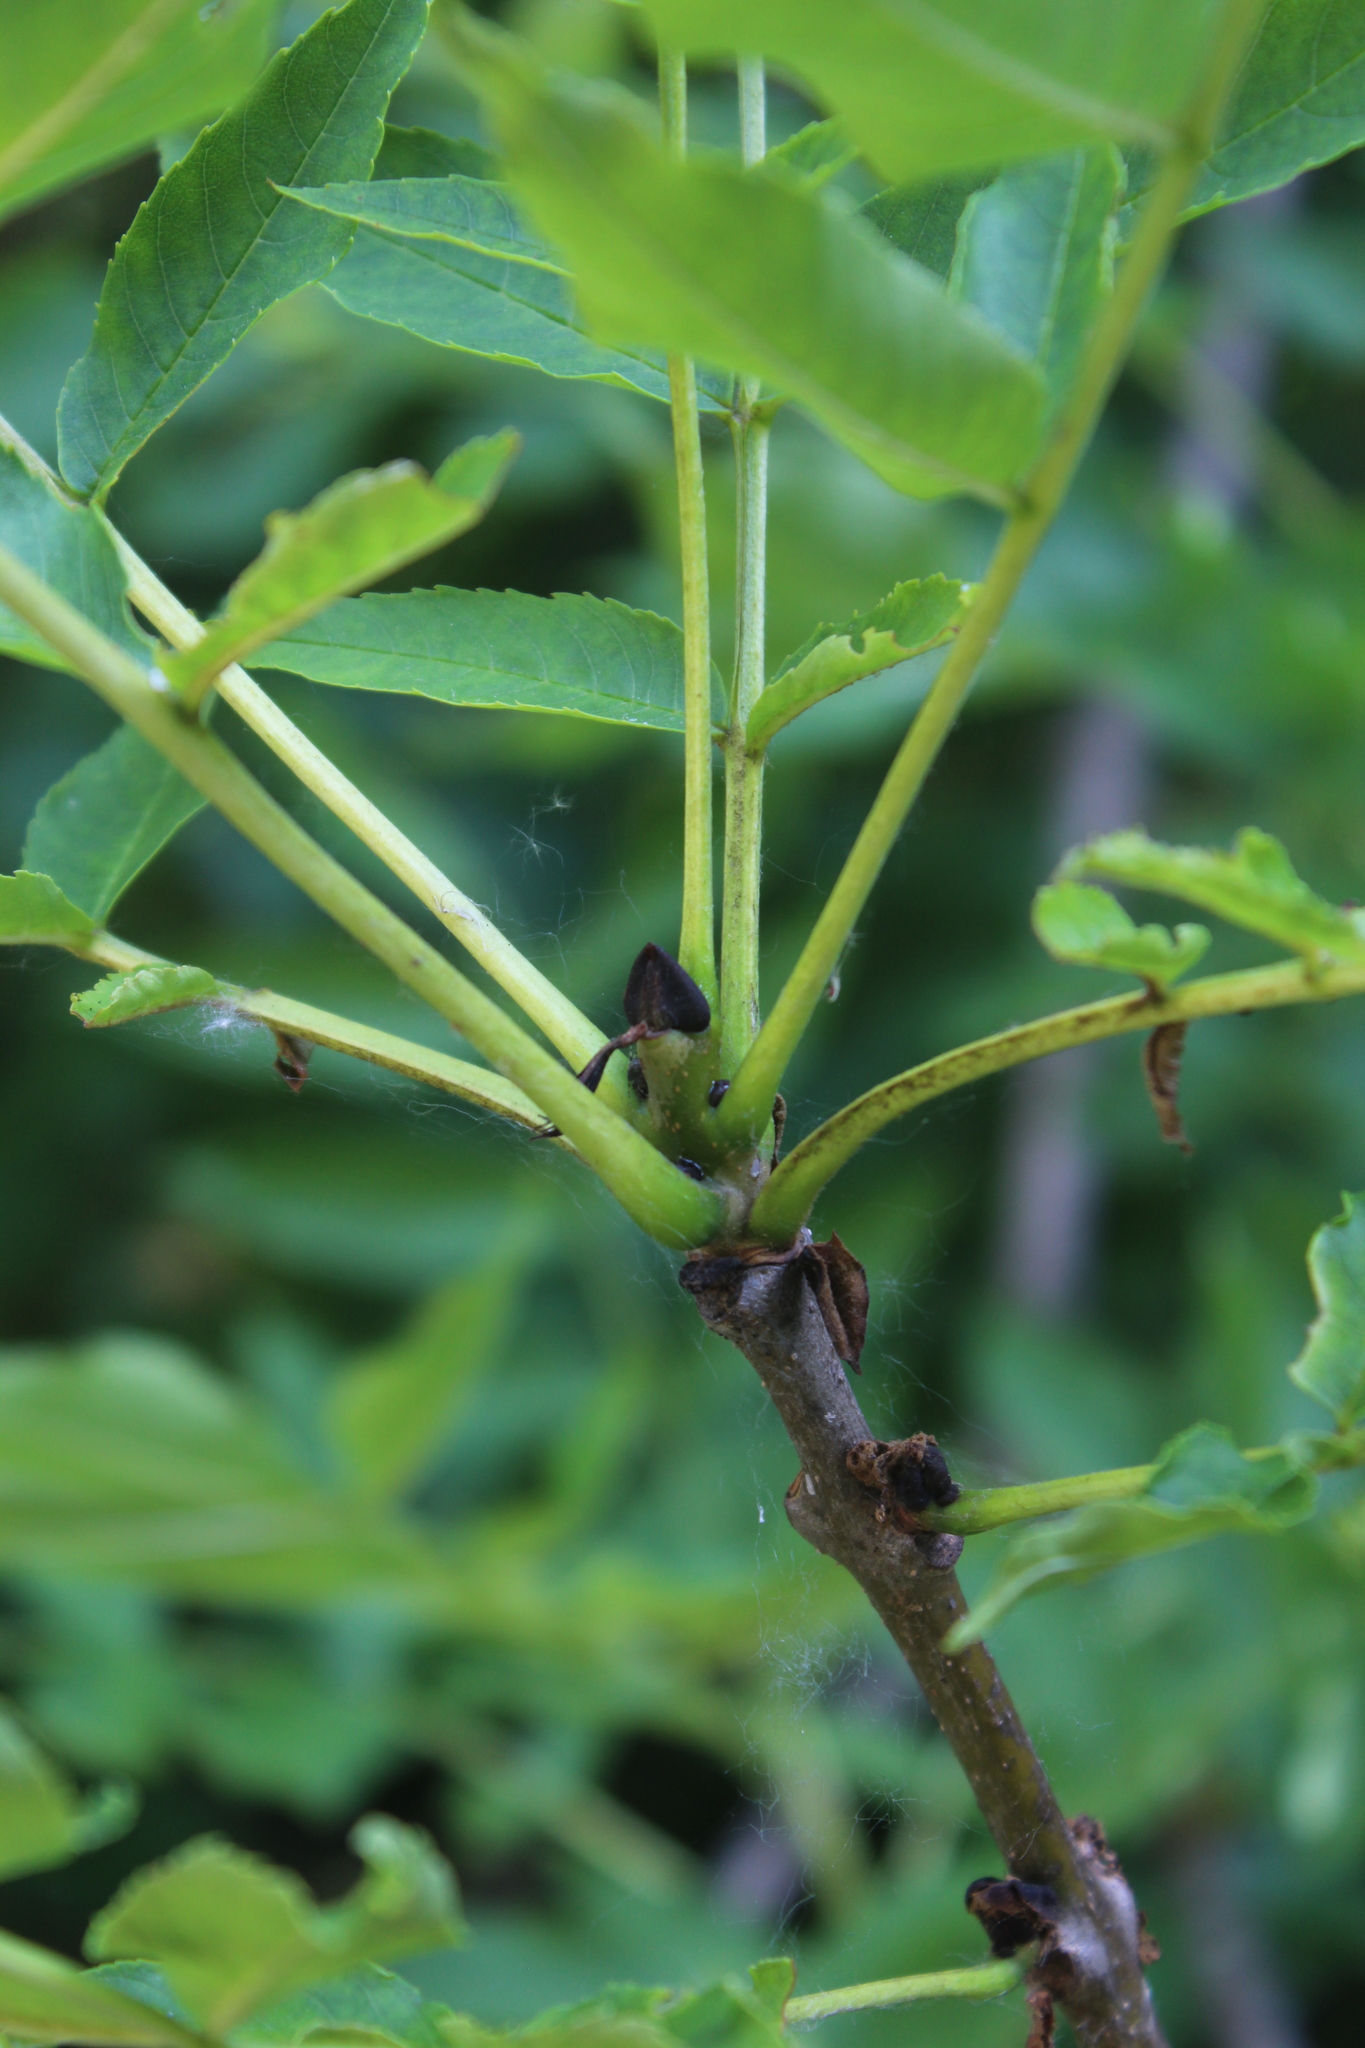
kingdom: Plantae
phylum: Tracheophyta
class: Magnoliopsida
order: Lamiales
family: Oleaceae
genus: Fraxinus
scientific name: Fraxinus excelsior
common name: European ash
